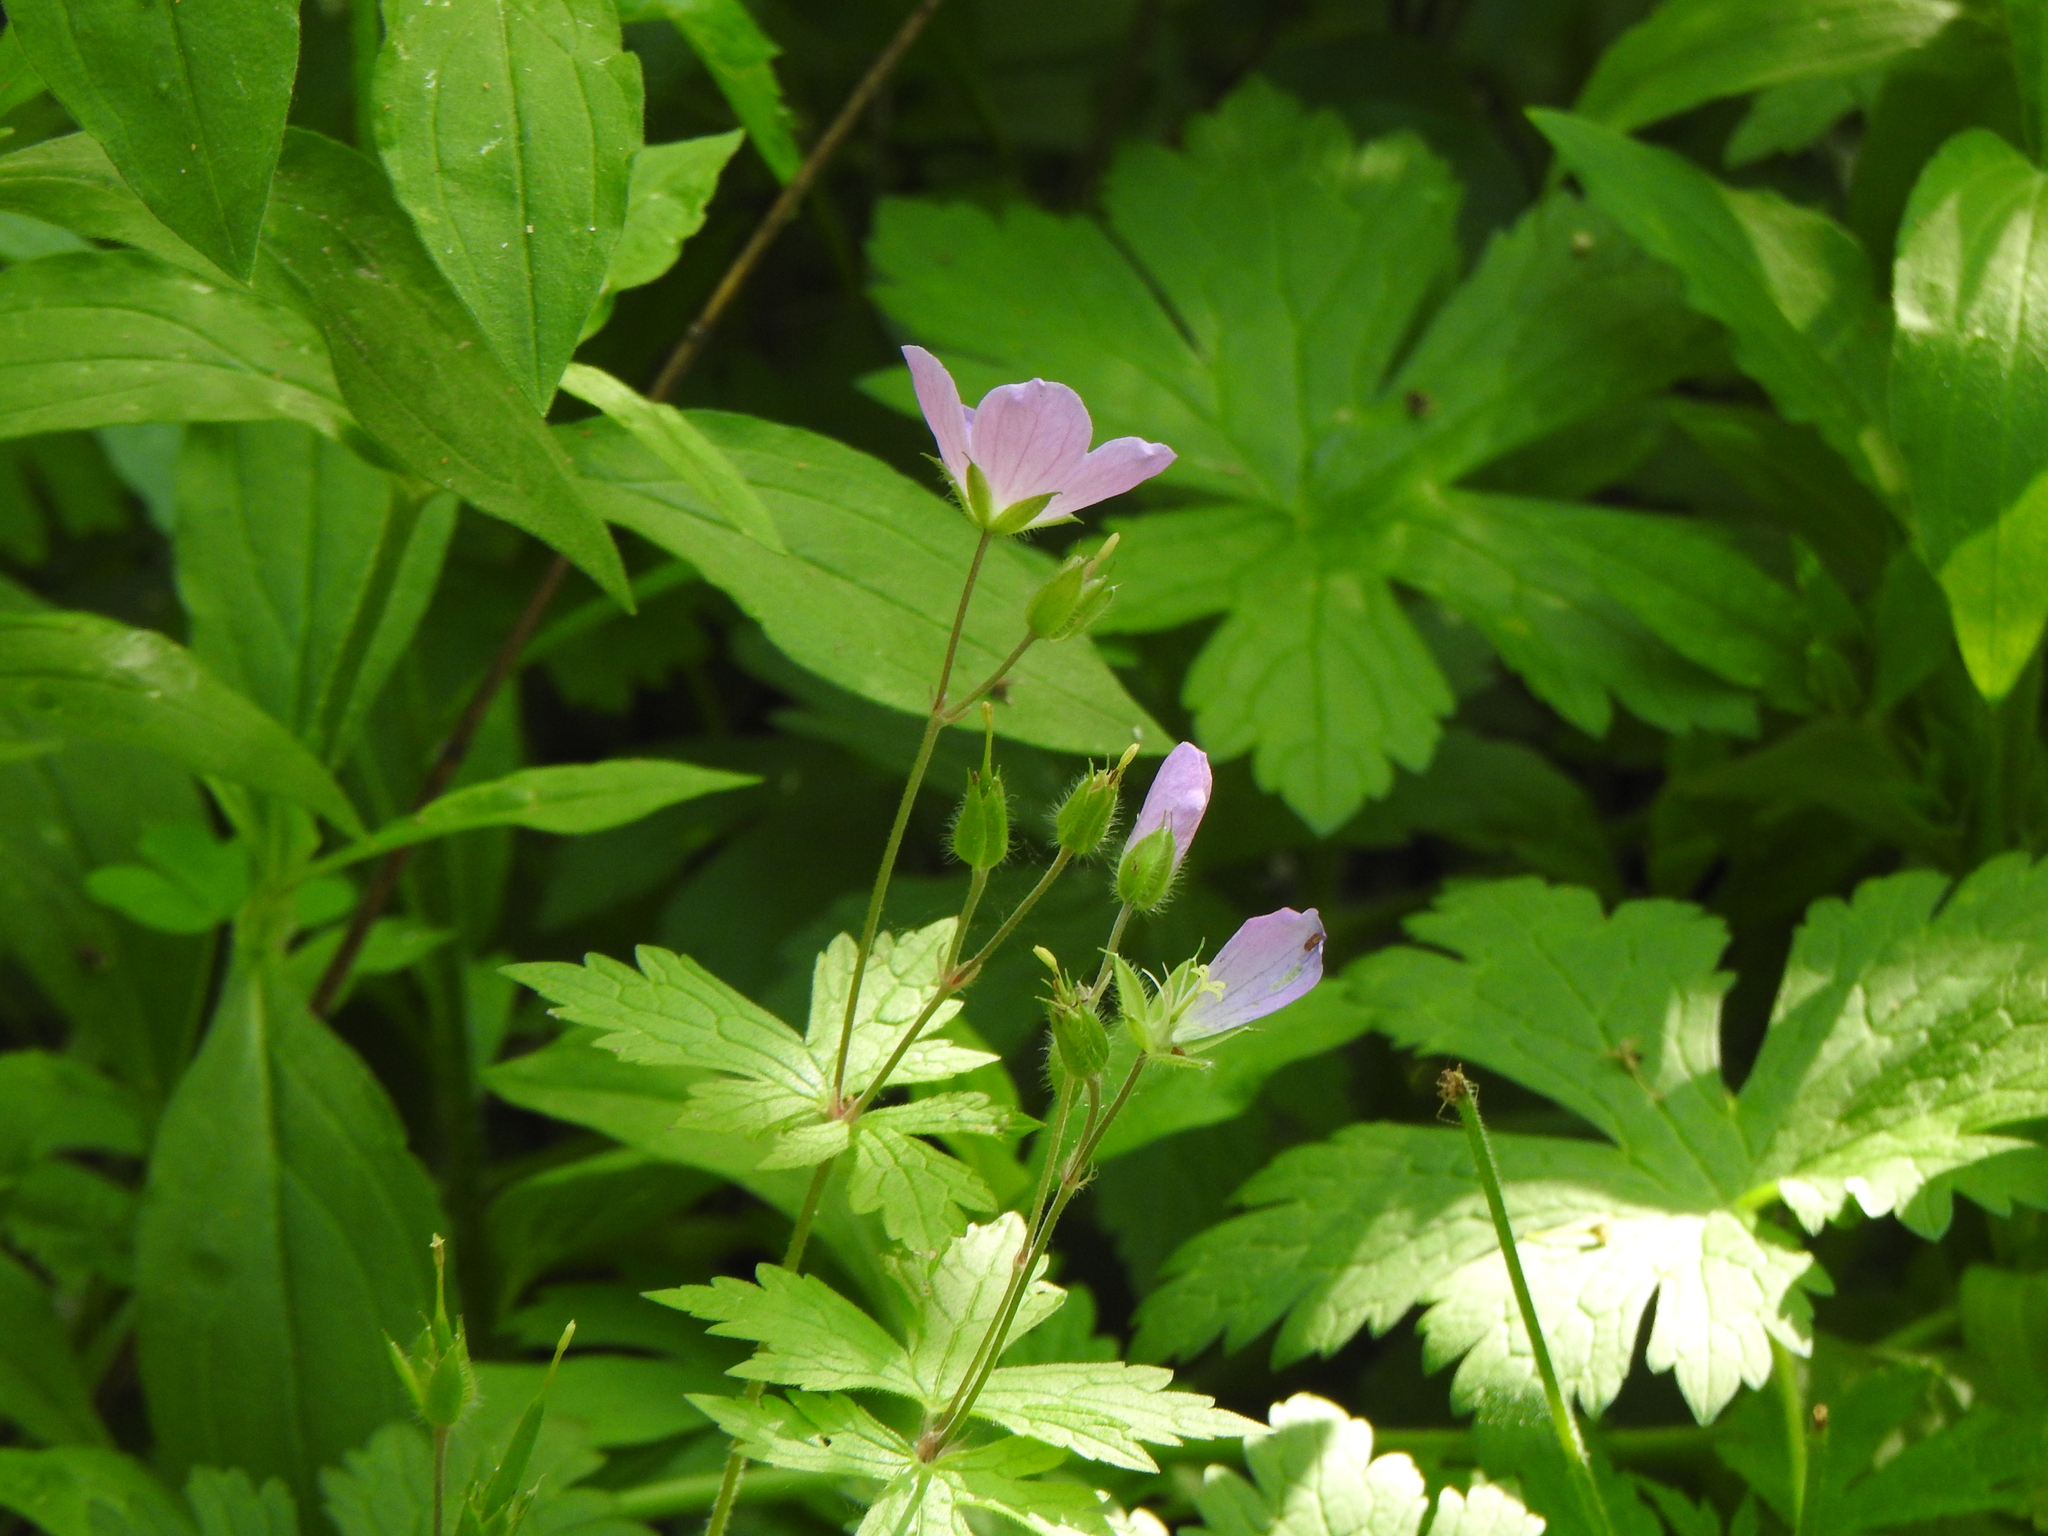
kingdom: Plantae
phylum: Tracheophyta
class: Magnoliopsida
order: Geraniales
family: Geraniaceae
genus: Geranium
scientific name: Geranium maculatum
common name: Spotted geranium
